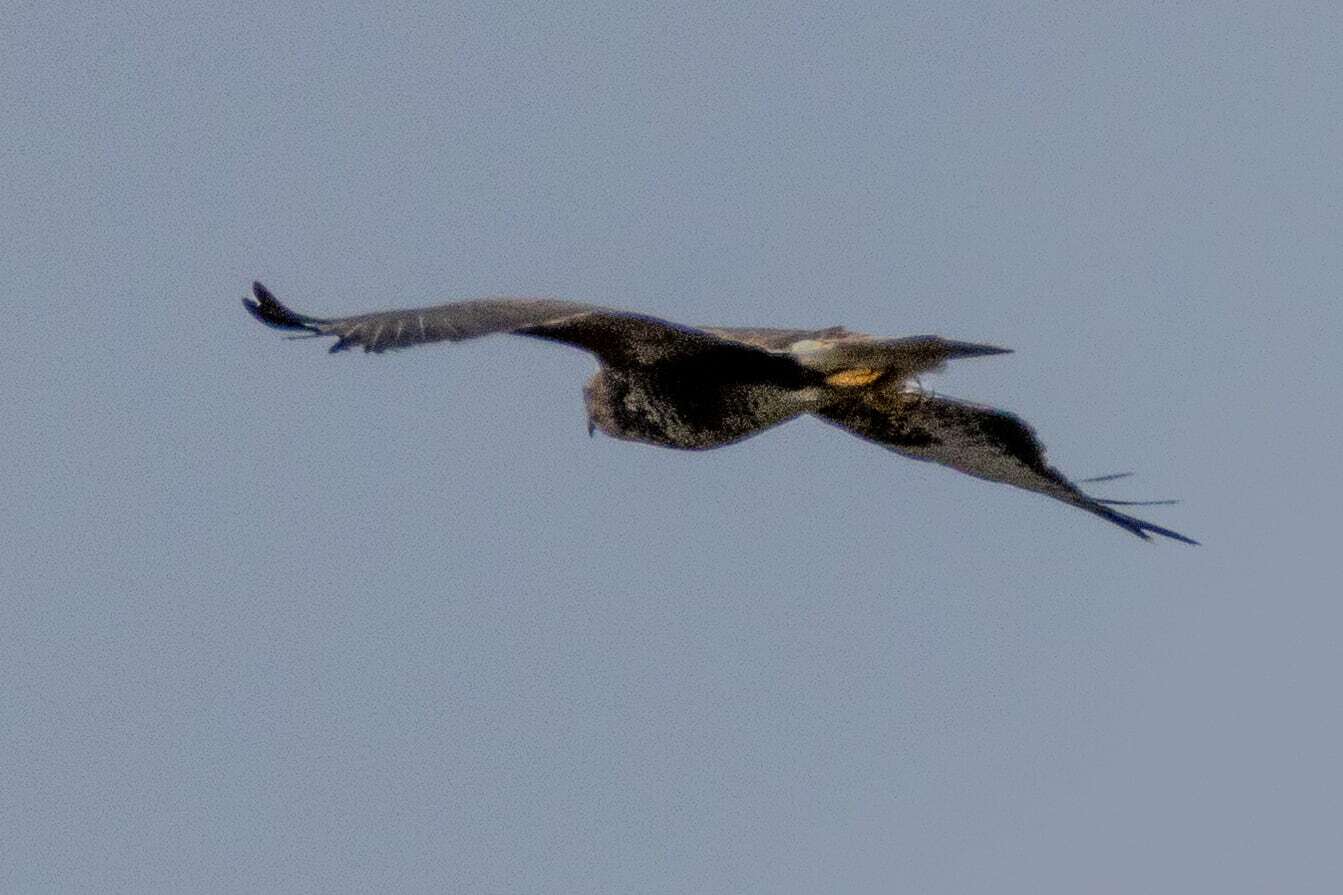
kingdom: Animalia
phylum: Chordata
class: Aves
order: Accipitriformes
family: Accipitridae
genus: Buteo
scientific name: Buteo buteo
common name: Common buzzard
